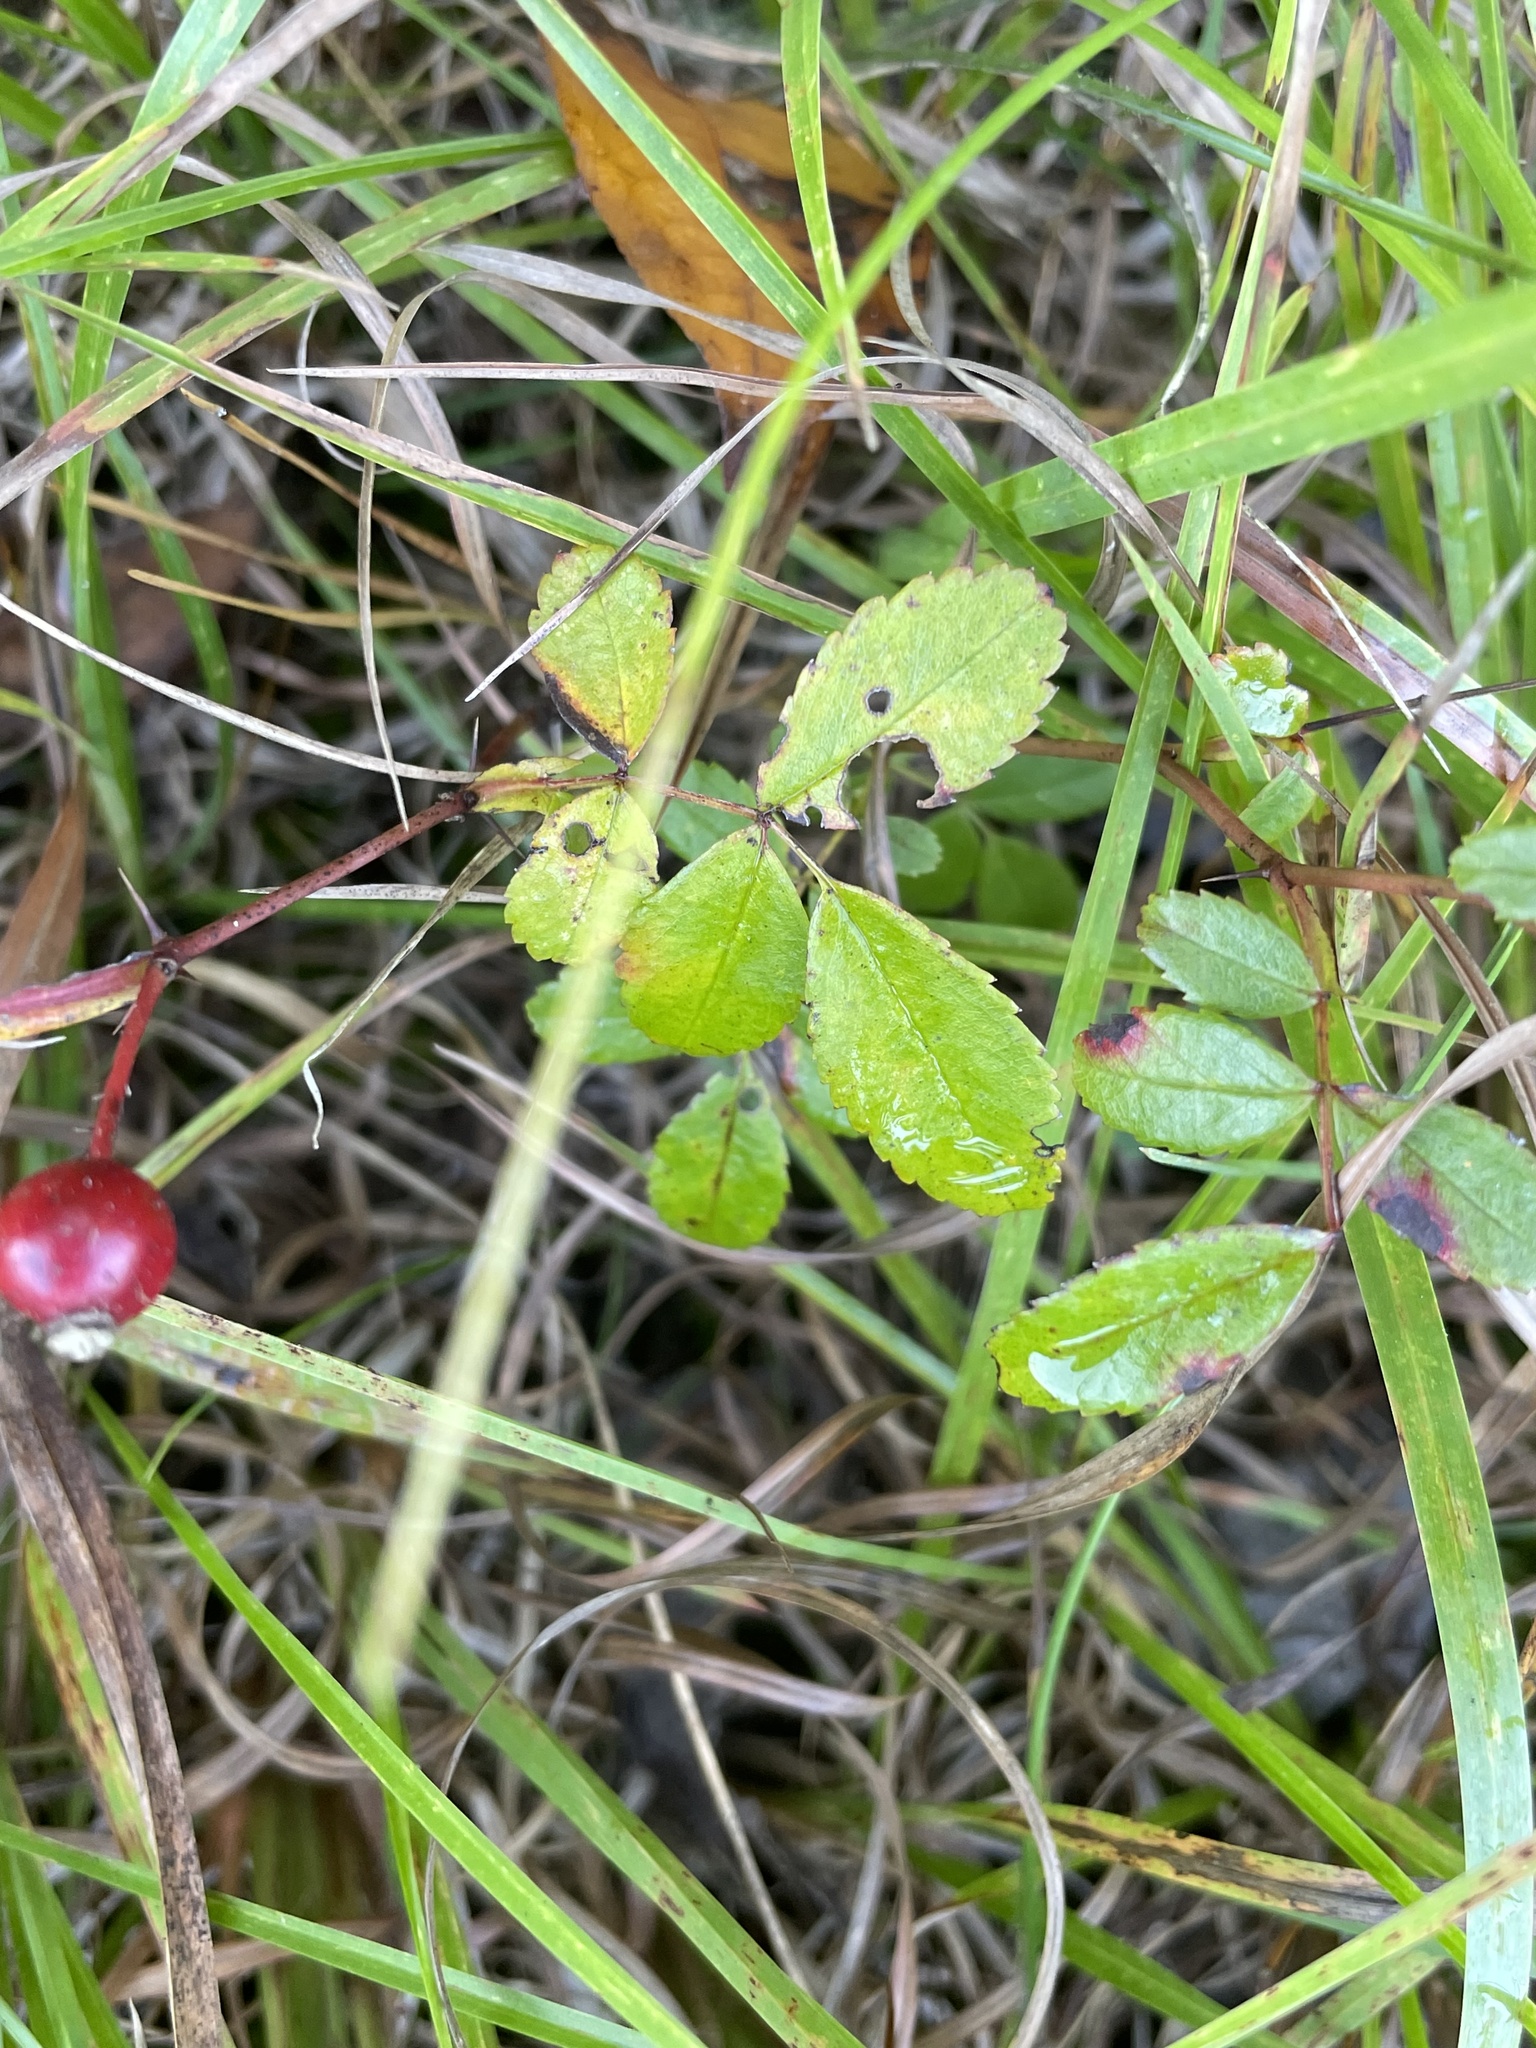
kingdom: Plantae
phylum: Tracheophyta
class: Magnoliopsida
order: Rosales
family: Rosaceae
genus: Rosa
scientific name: Rosa carolina
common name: Pasture rose
